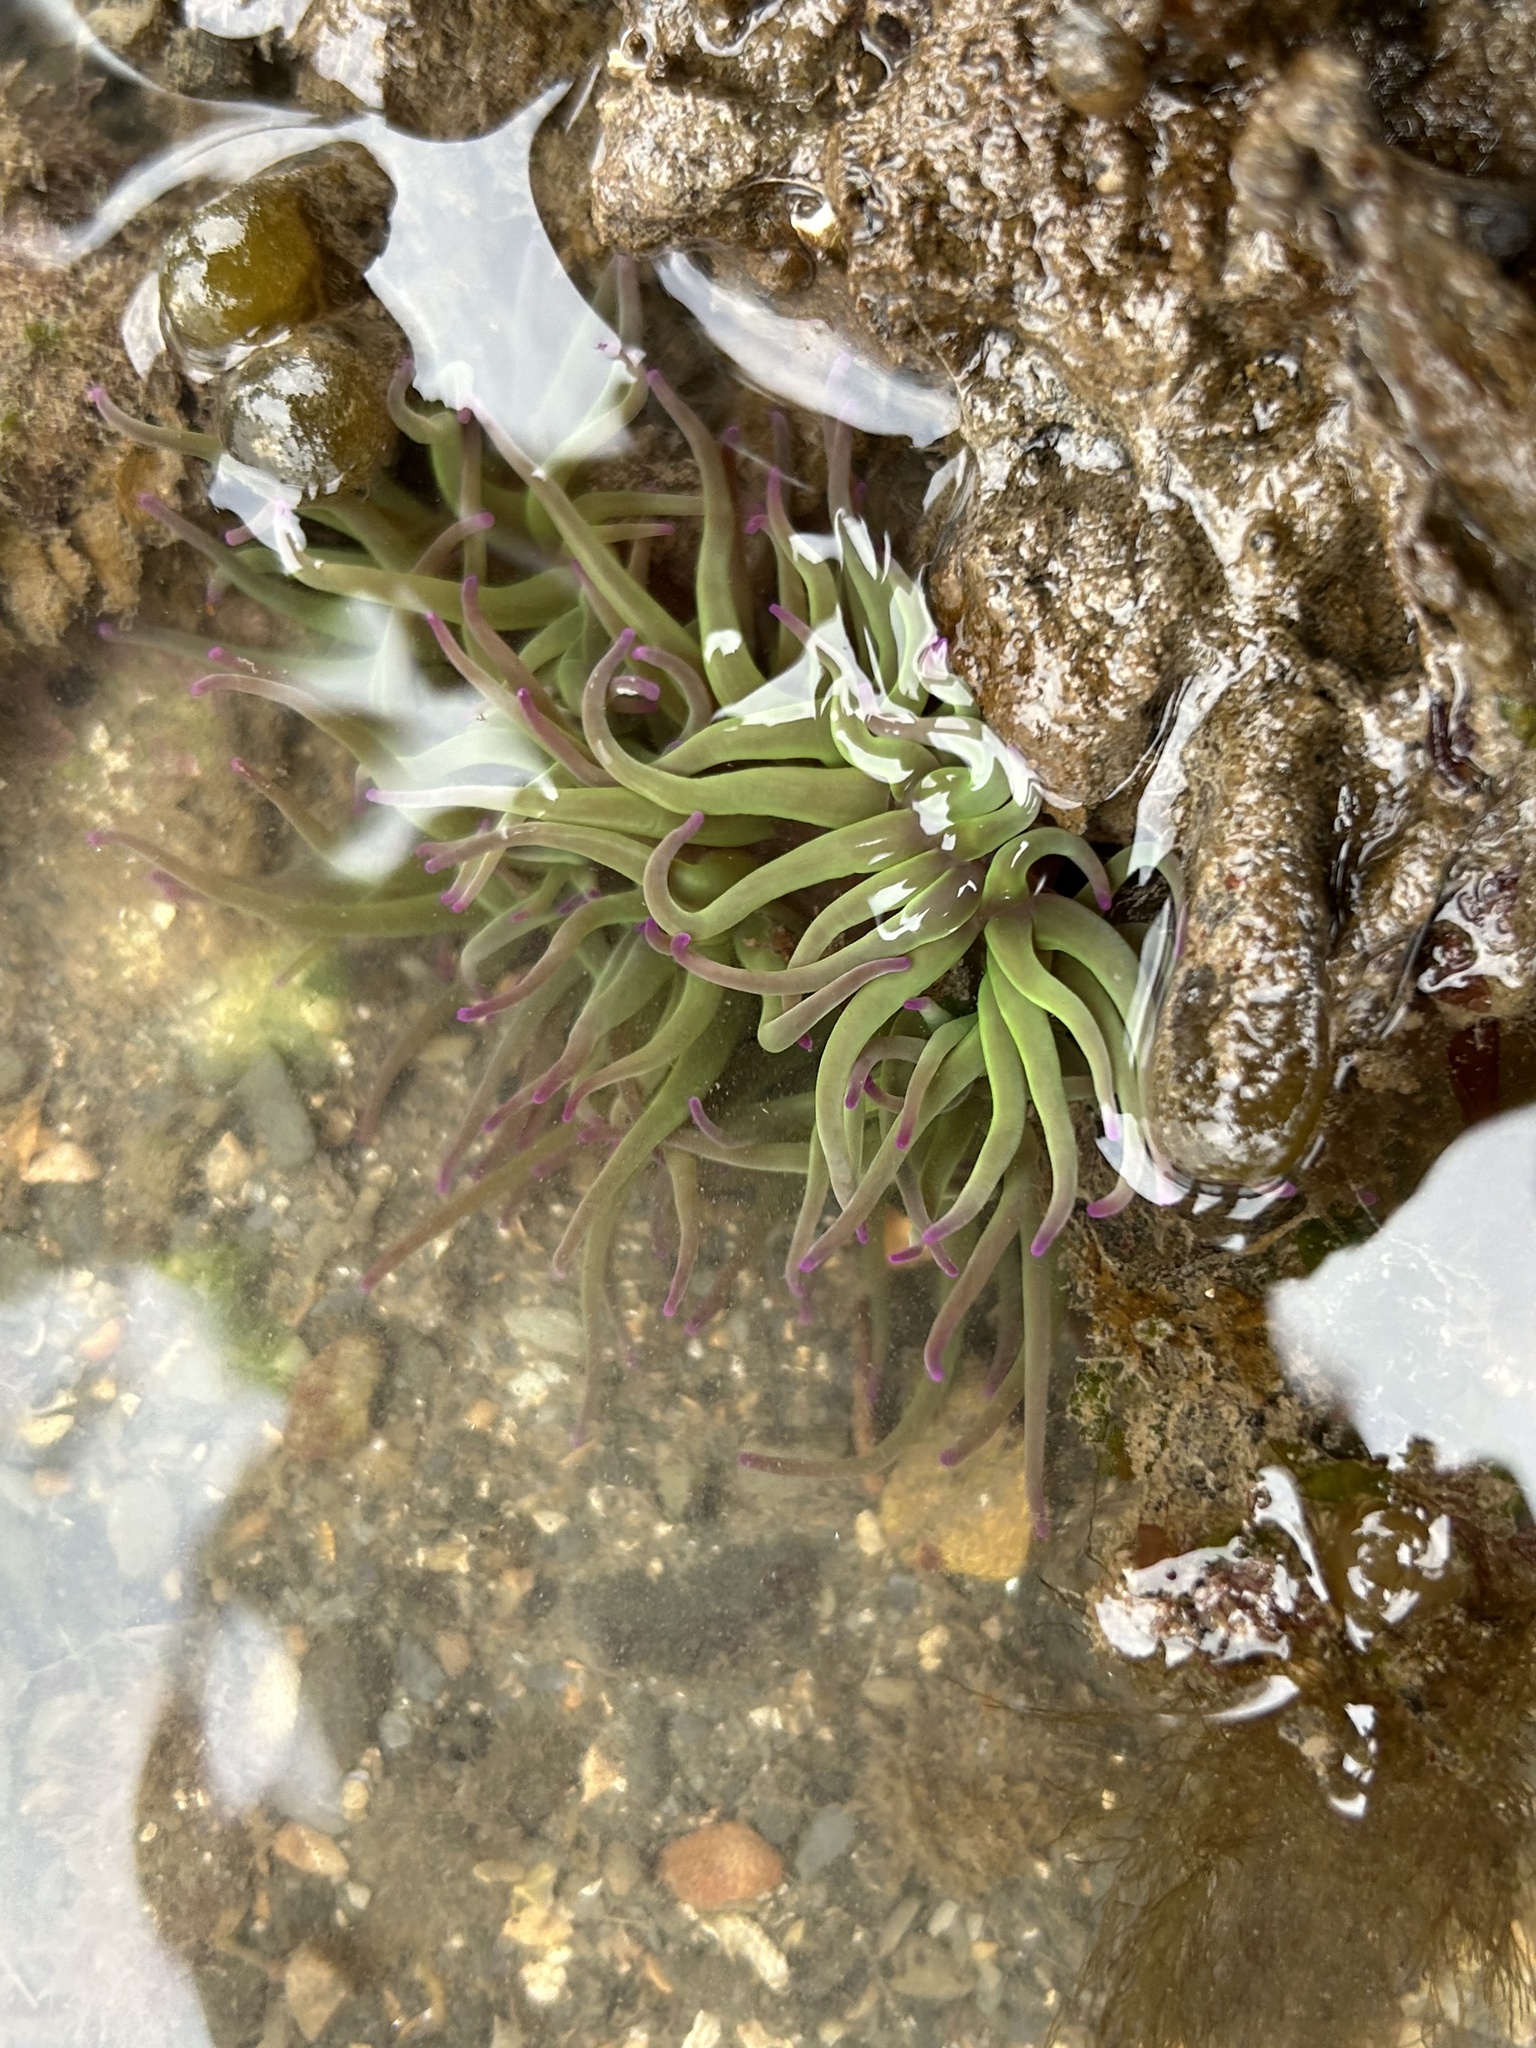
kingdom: Animalia
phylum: Cnidaria
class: Anthozoa
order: Actiniaria
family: Actiniidae
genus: Anemonia
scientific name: Anemonia viridis
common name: Snakelocks anemone
